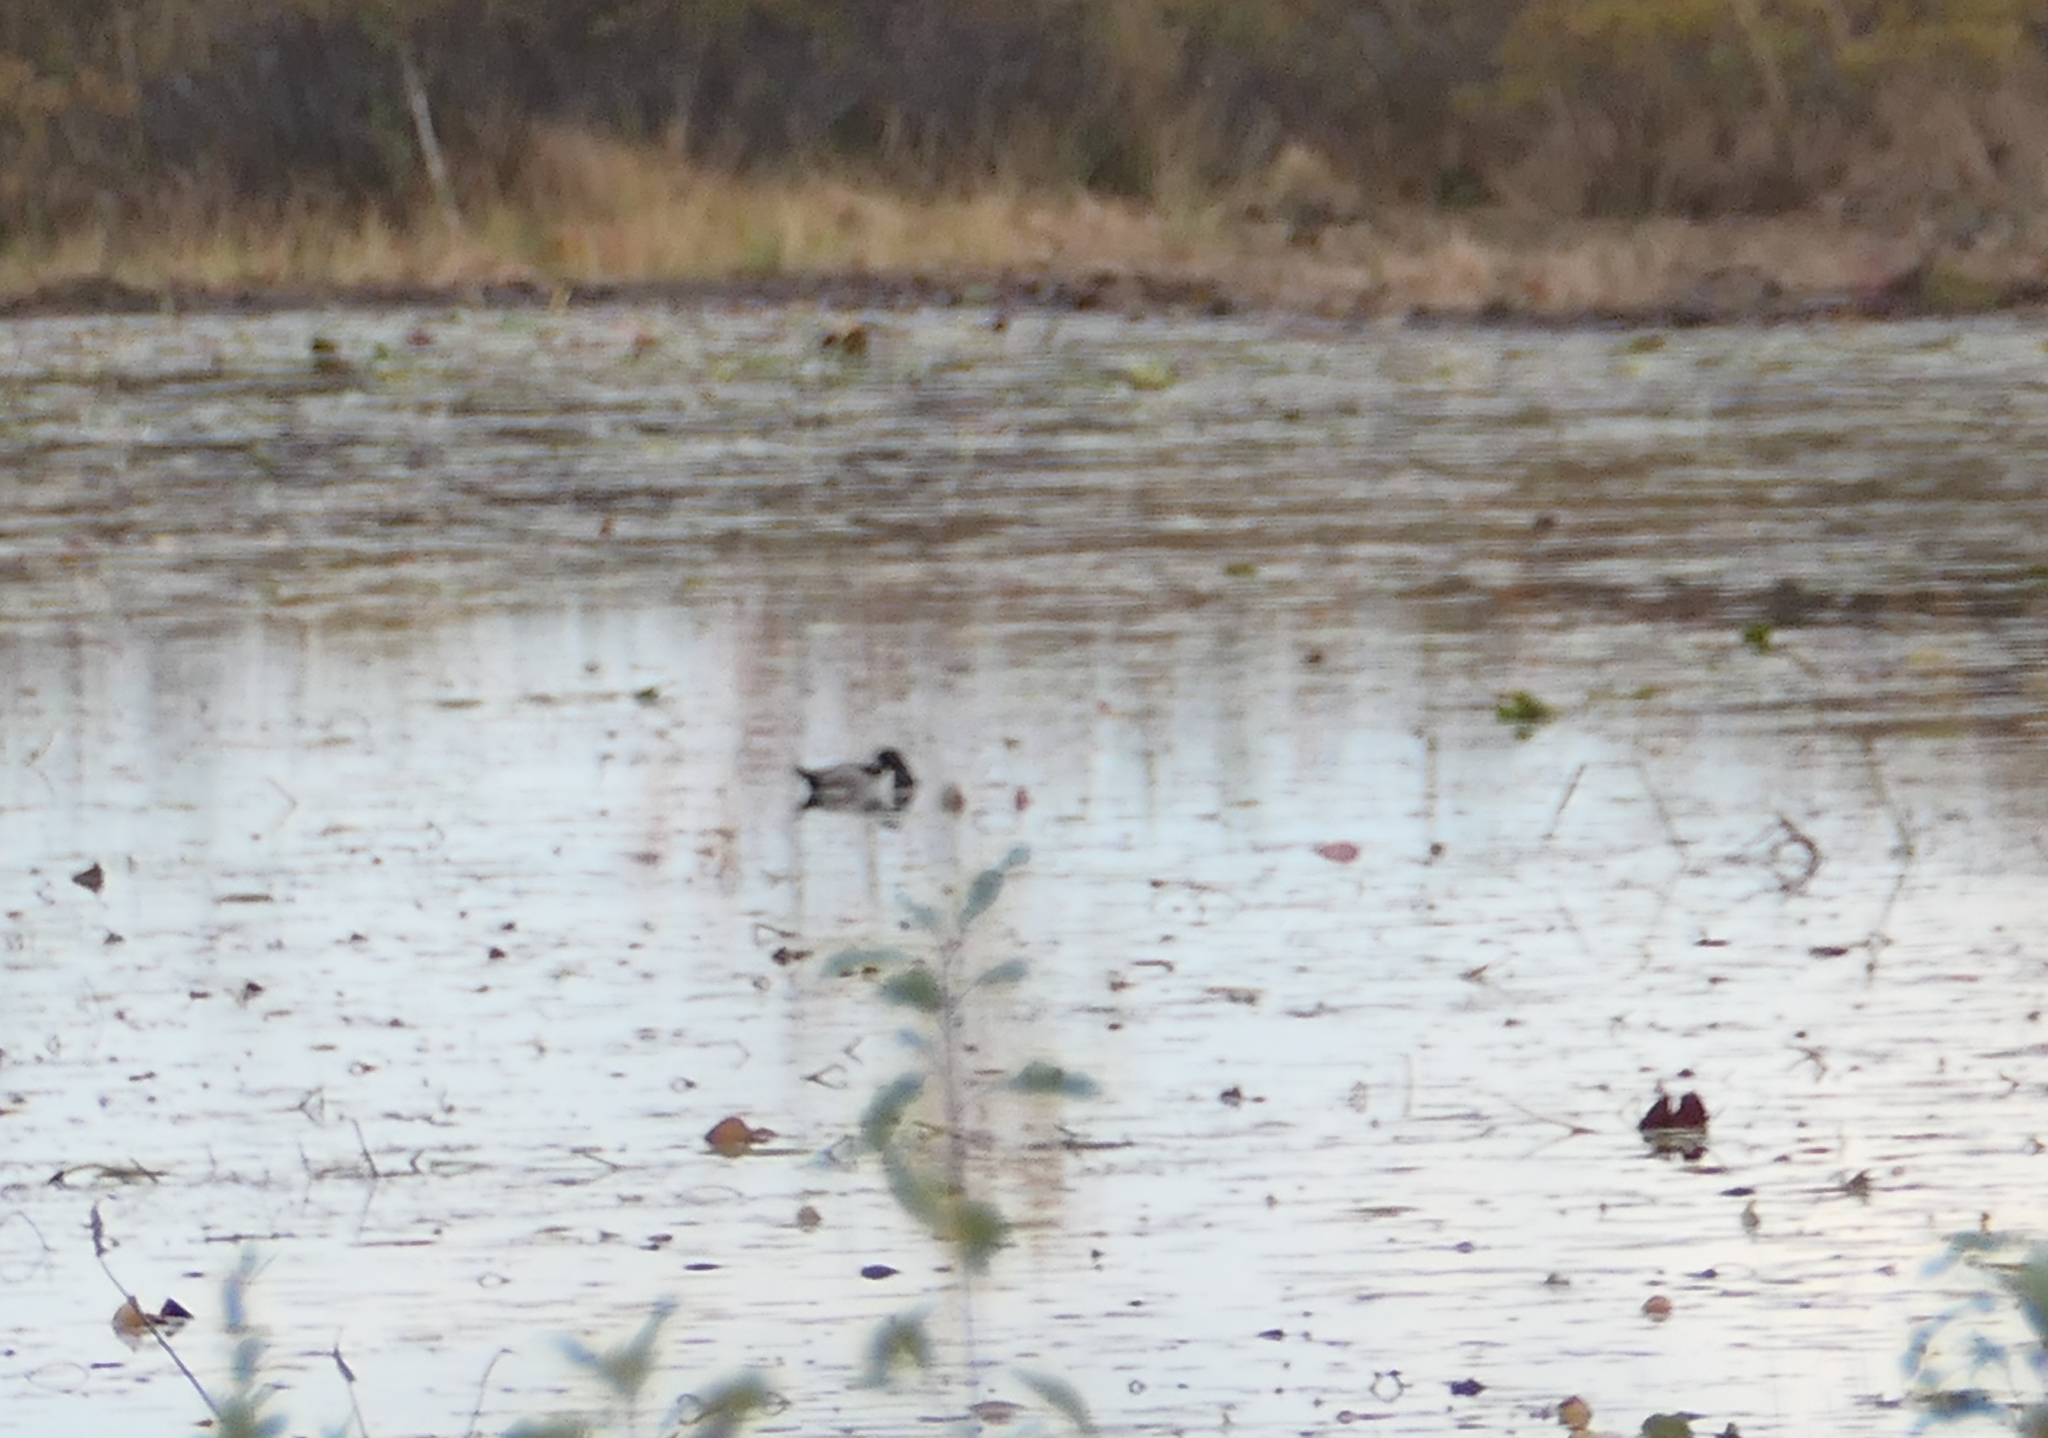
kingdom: Animalia
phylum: Chordata
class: Aves
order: Anseriformes
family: Anatidae
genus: Aythya
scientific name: Aythya collaris
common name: Ring-necked duck
